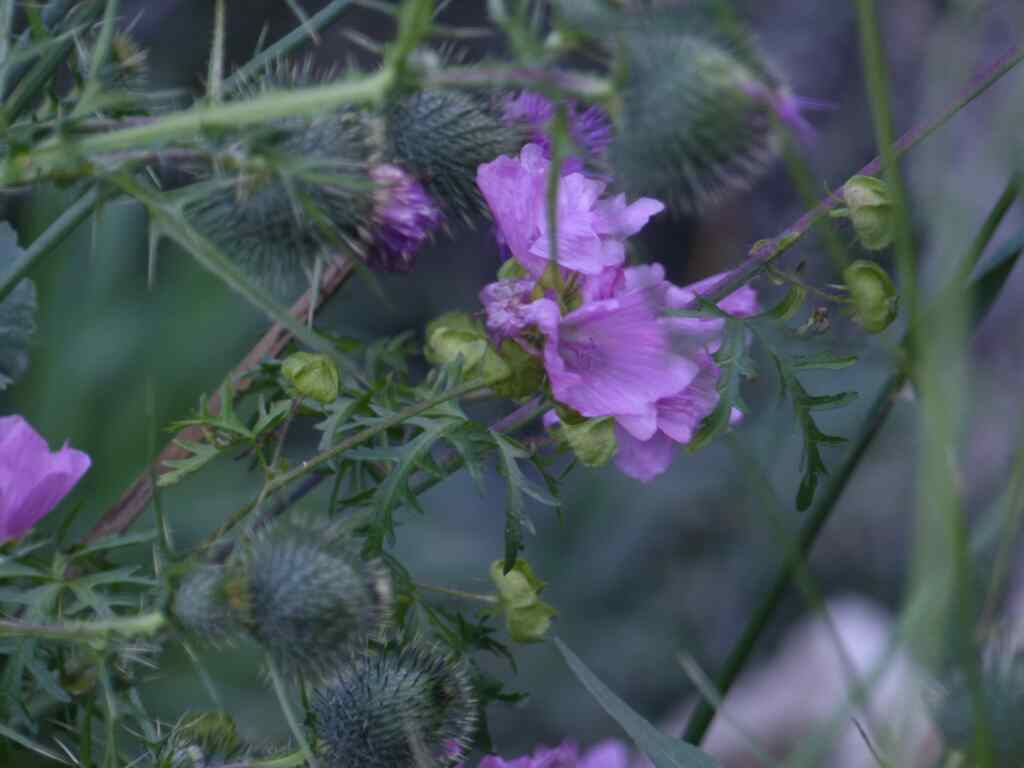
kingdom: Plantae
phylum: Tracheophyta
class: Magnoliopsida
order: Malvales
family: Malvaceae
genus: Malva
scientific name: Malva moschata
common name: Musk mallow
